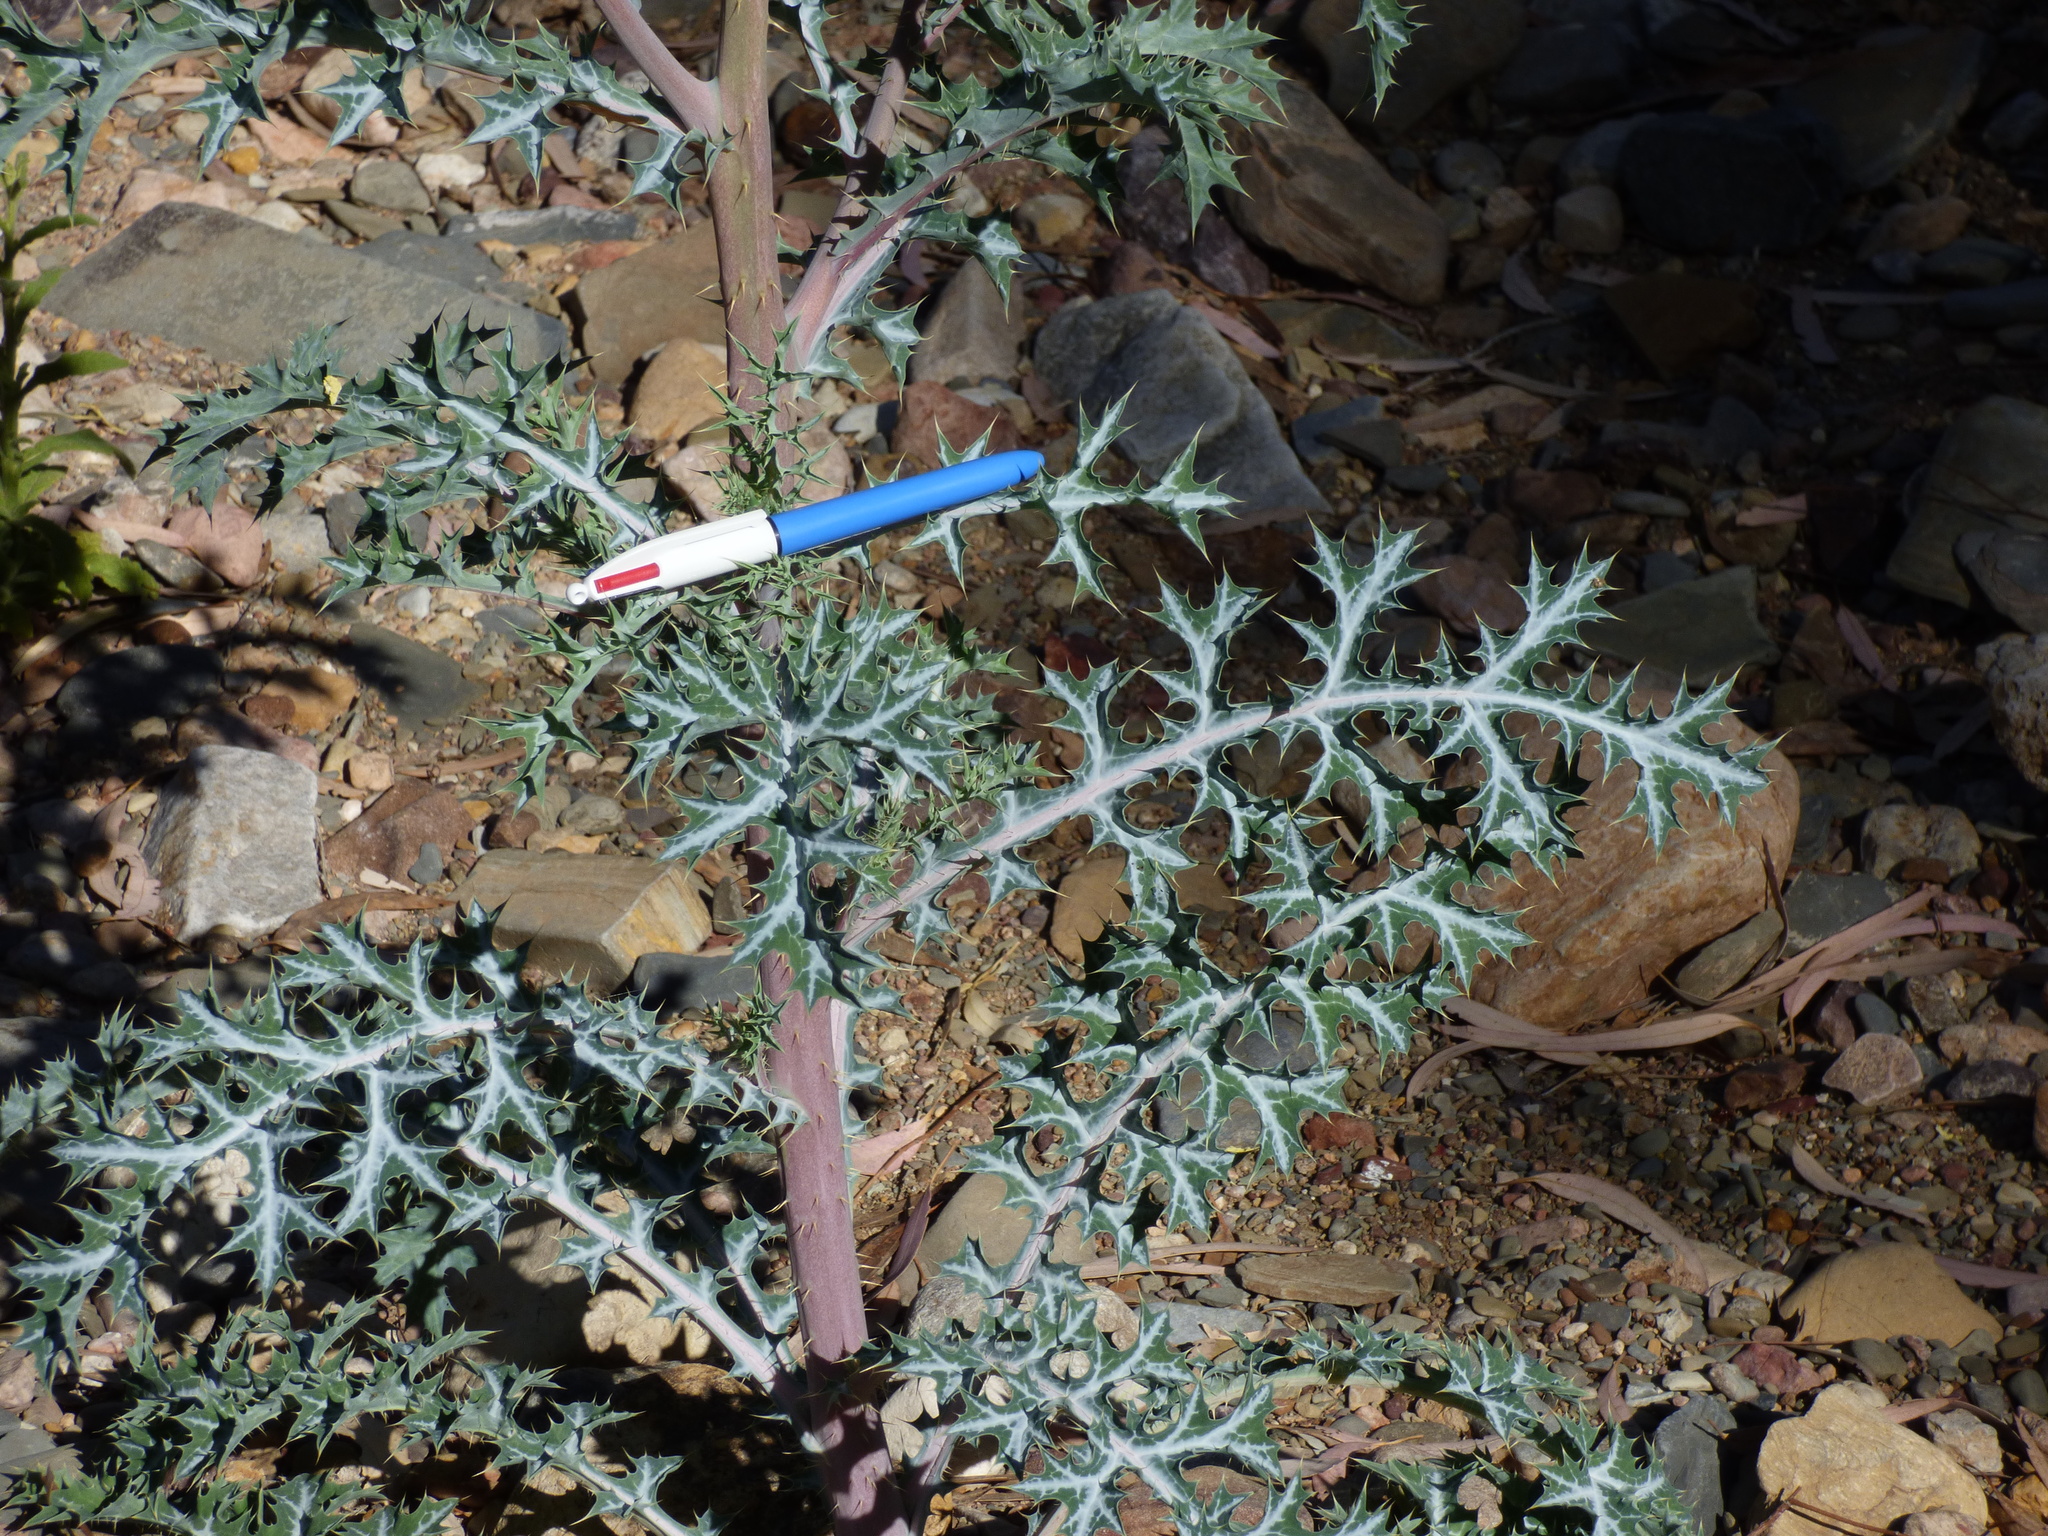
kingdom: Plantae
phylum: Tracheophyta
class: Magnoliopsida
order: Ranunculales
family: Papaveraceae
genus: Argemone
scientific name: Argemone ochroleuca
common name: White-flower mexican-poppy
